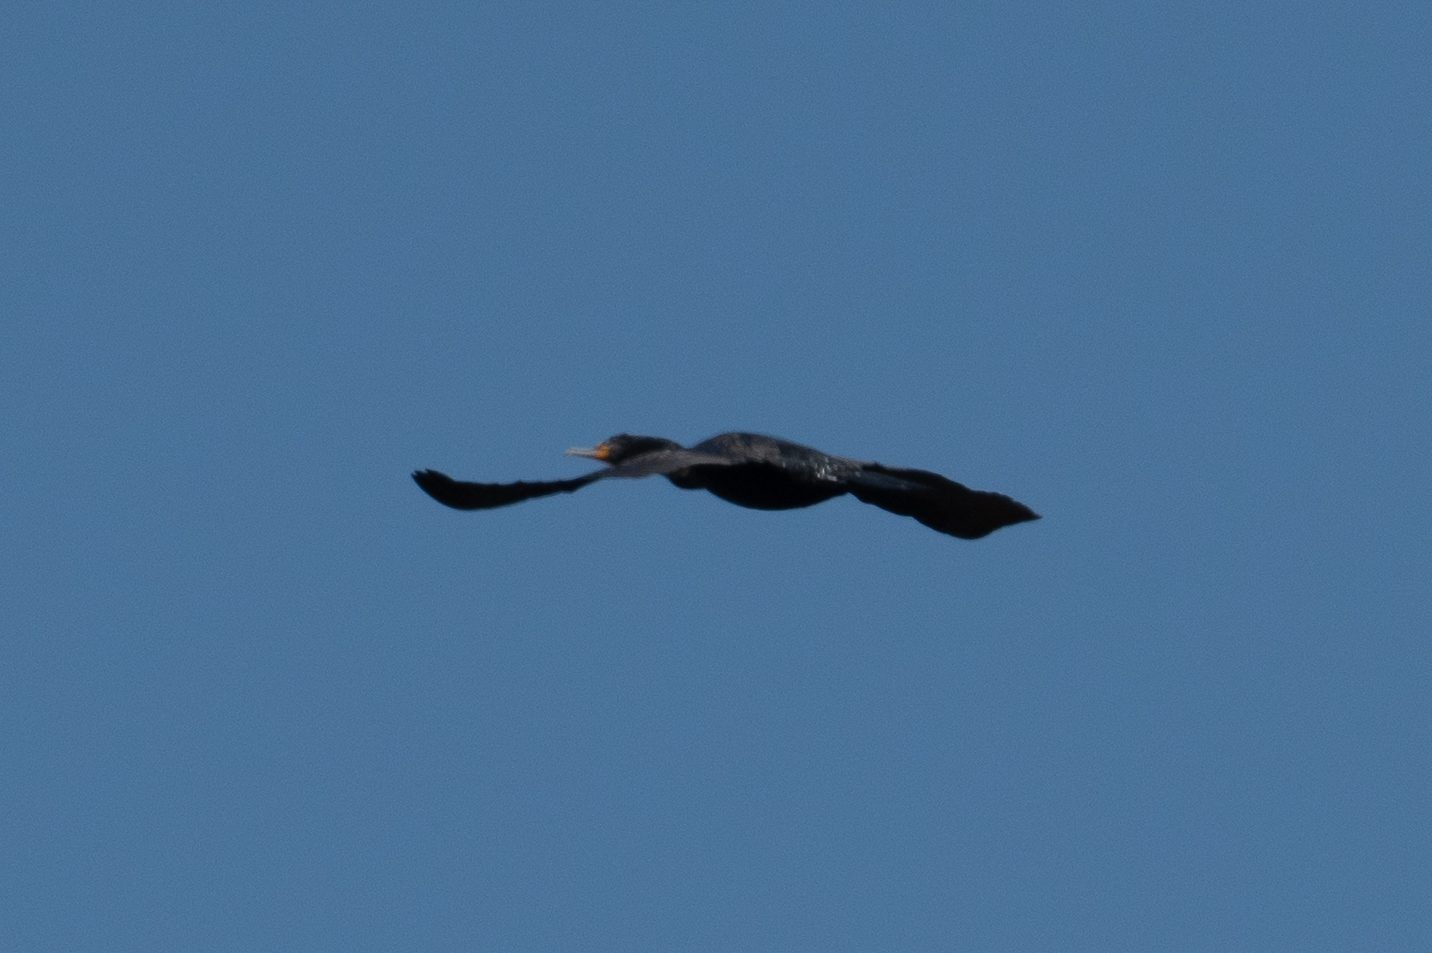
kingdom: Animalia
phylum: Chordata
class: Aves
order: Suliformes
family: Phalacrocoracidae
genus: Phalacrocorax
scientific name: Phalacrocorax auritus
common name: Double-crested cormorant
